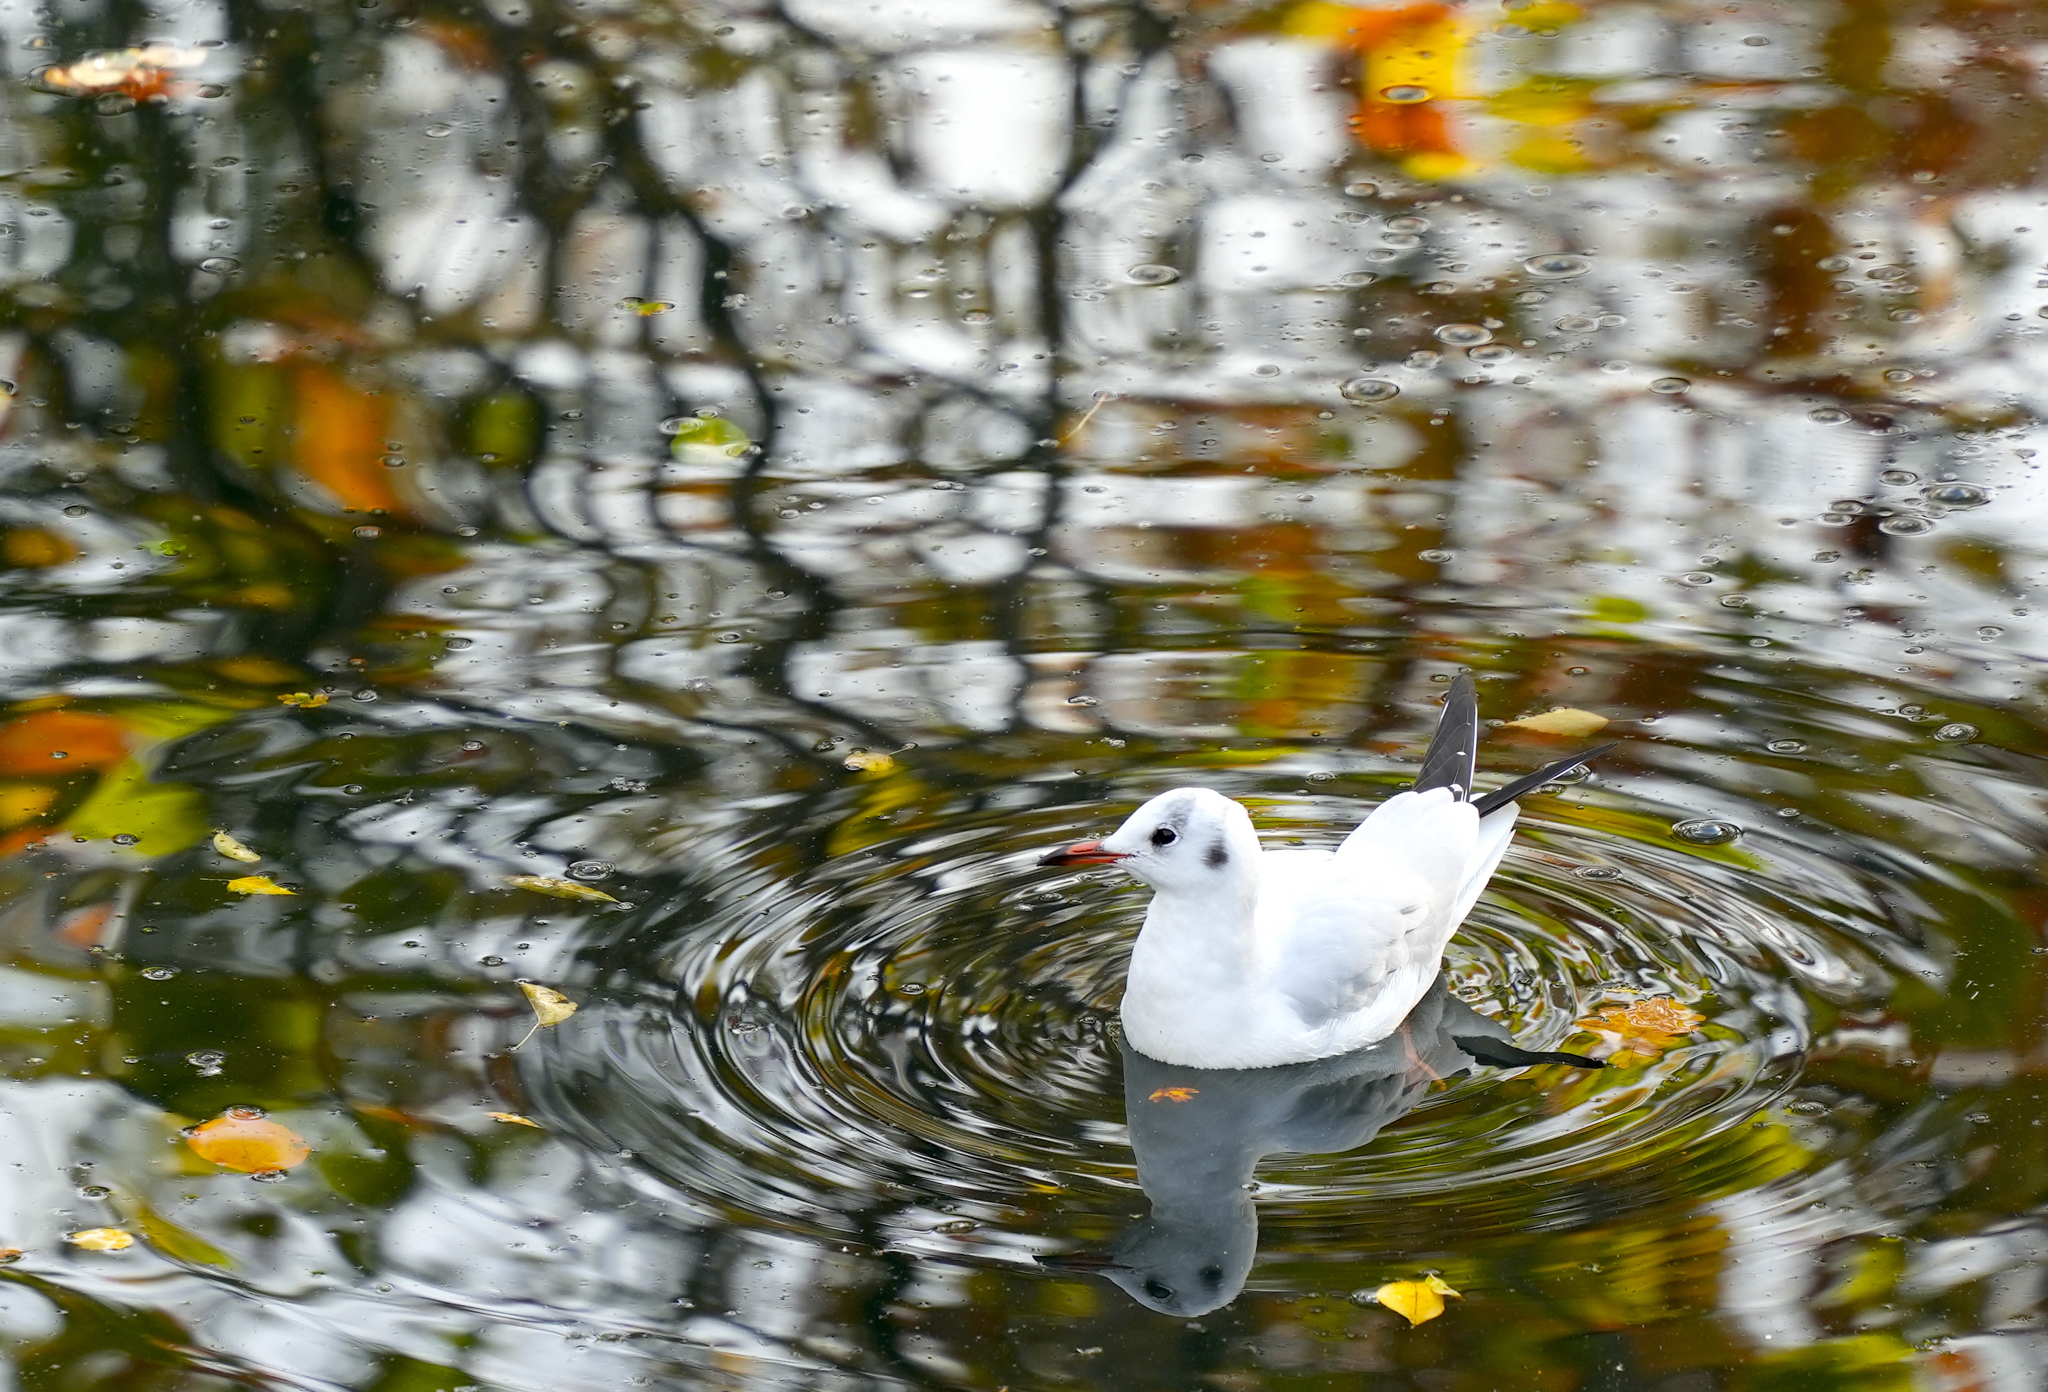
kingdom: Animalia
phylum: Chordata
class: Aves
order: Charadriiformes
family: Laridae
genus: Chroicocephalus
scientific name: Chroicocephalus ridibundus
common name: Black-headed gull
